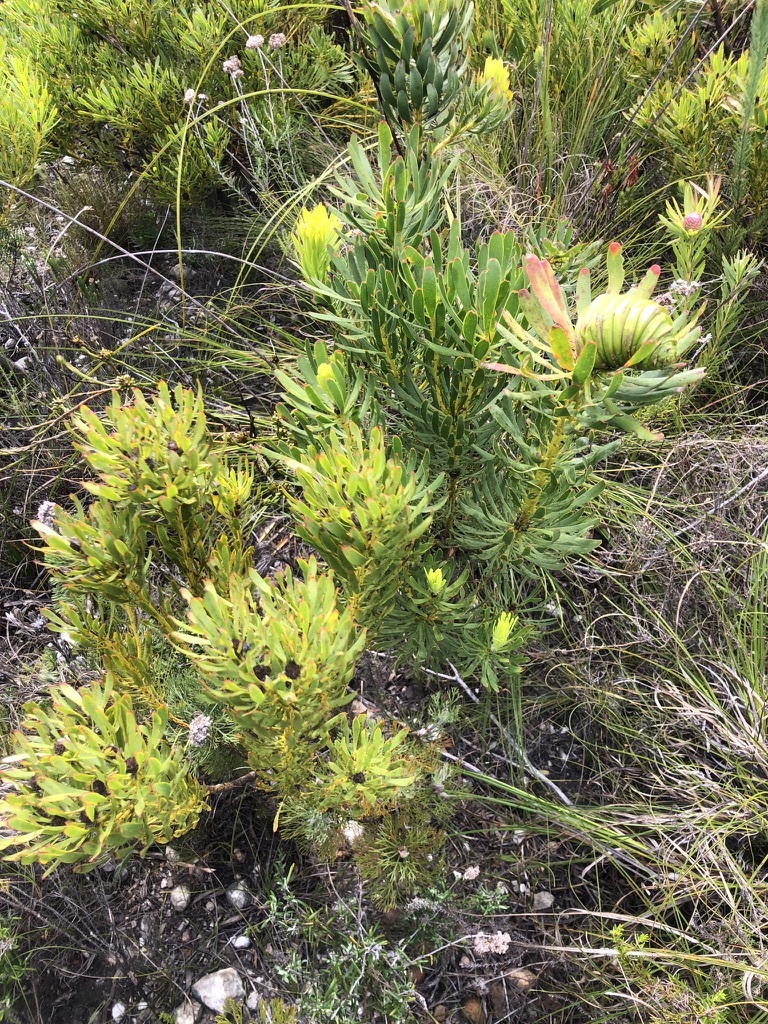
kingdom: Plantae
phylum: Tracheophyta
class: Magnoliopsida
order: Proteales
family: Proteaceae
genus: Leucadendron
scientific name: Leucadendron platyspermum
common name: Plate-seed conebush
